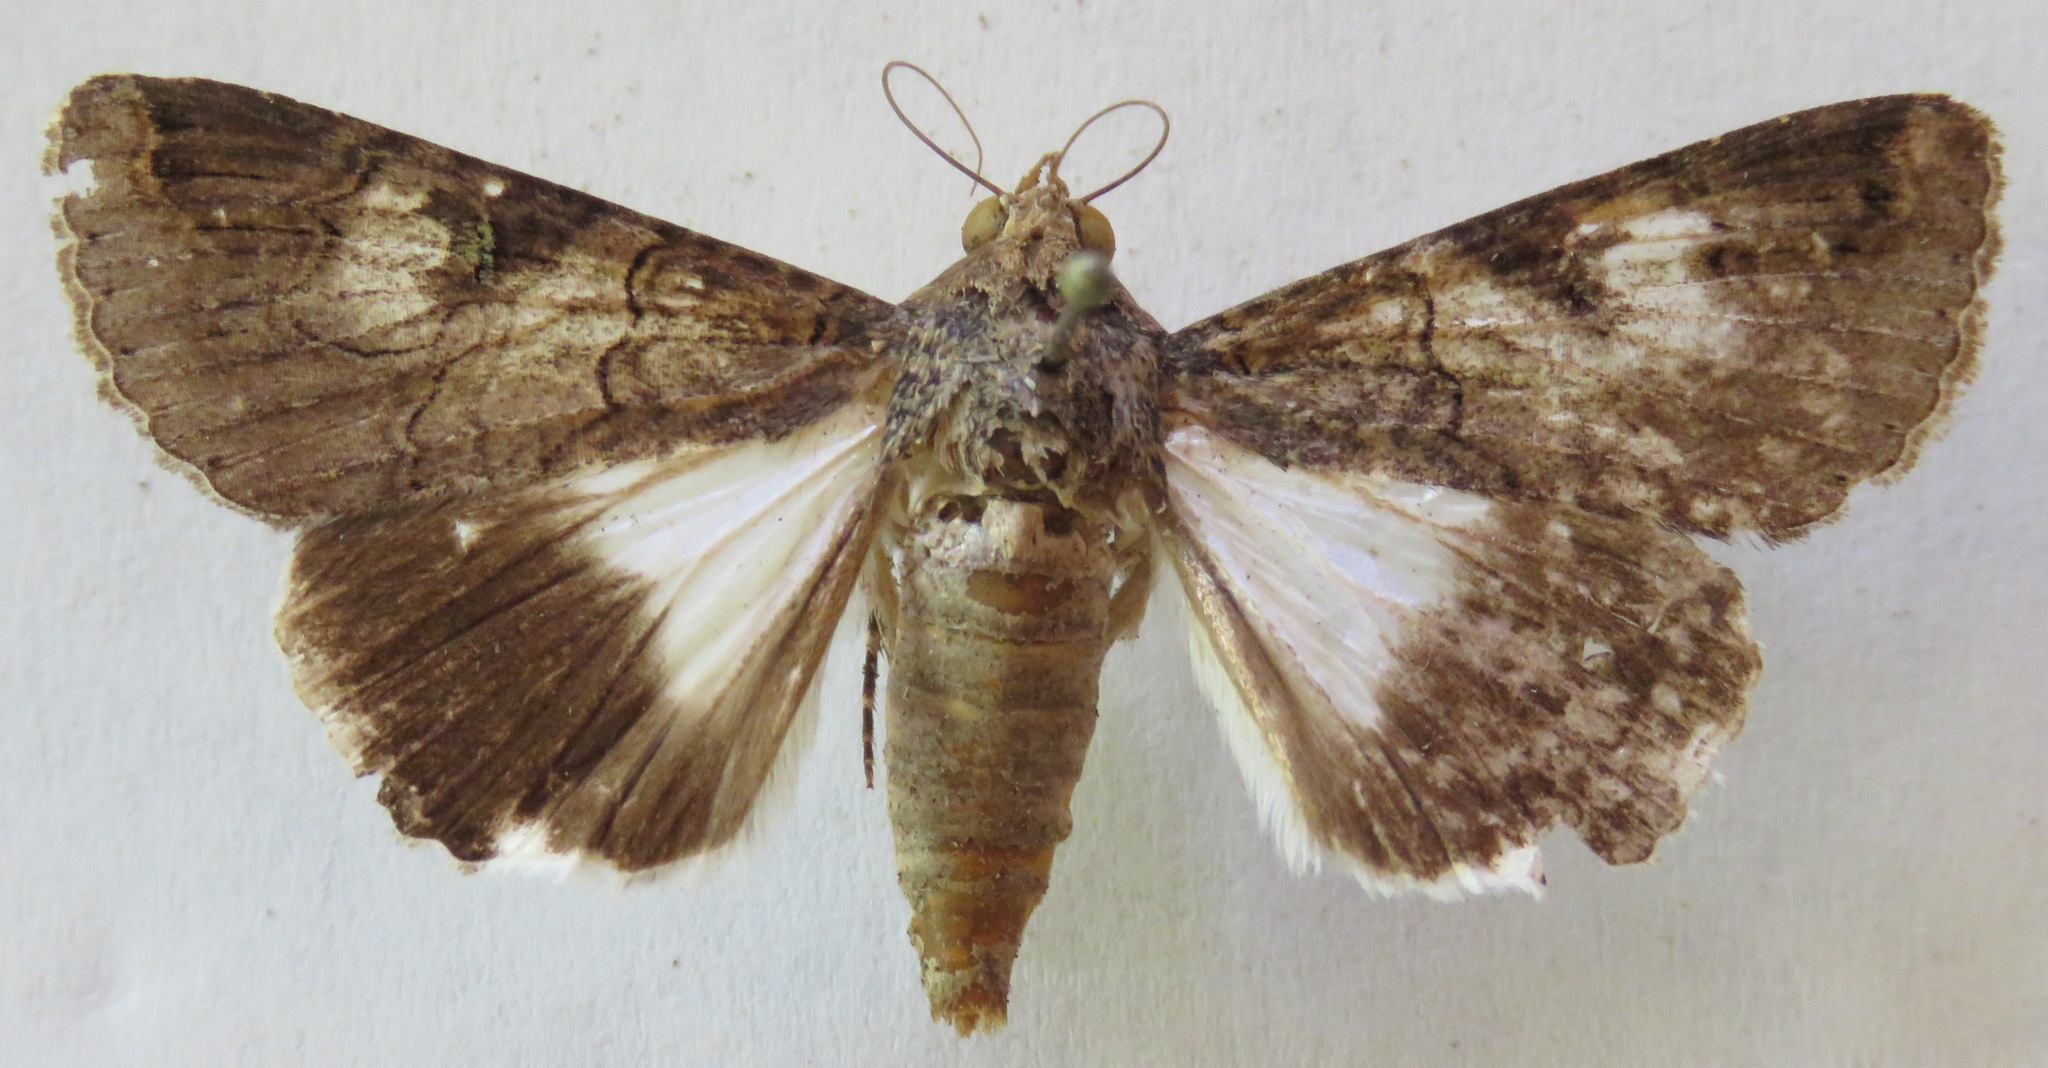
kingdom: Animalia
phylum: Arthropoda
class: Insecta
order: Lepidoptera
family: Erebidae
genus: Melipotis
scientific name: Melipotis famelica
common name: Famelica melipotis moth
